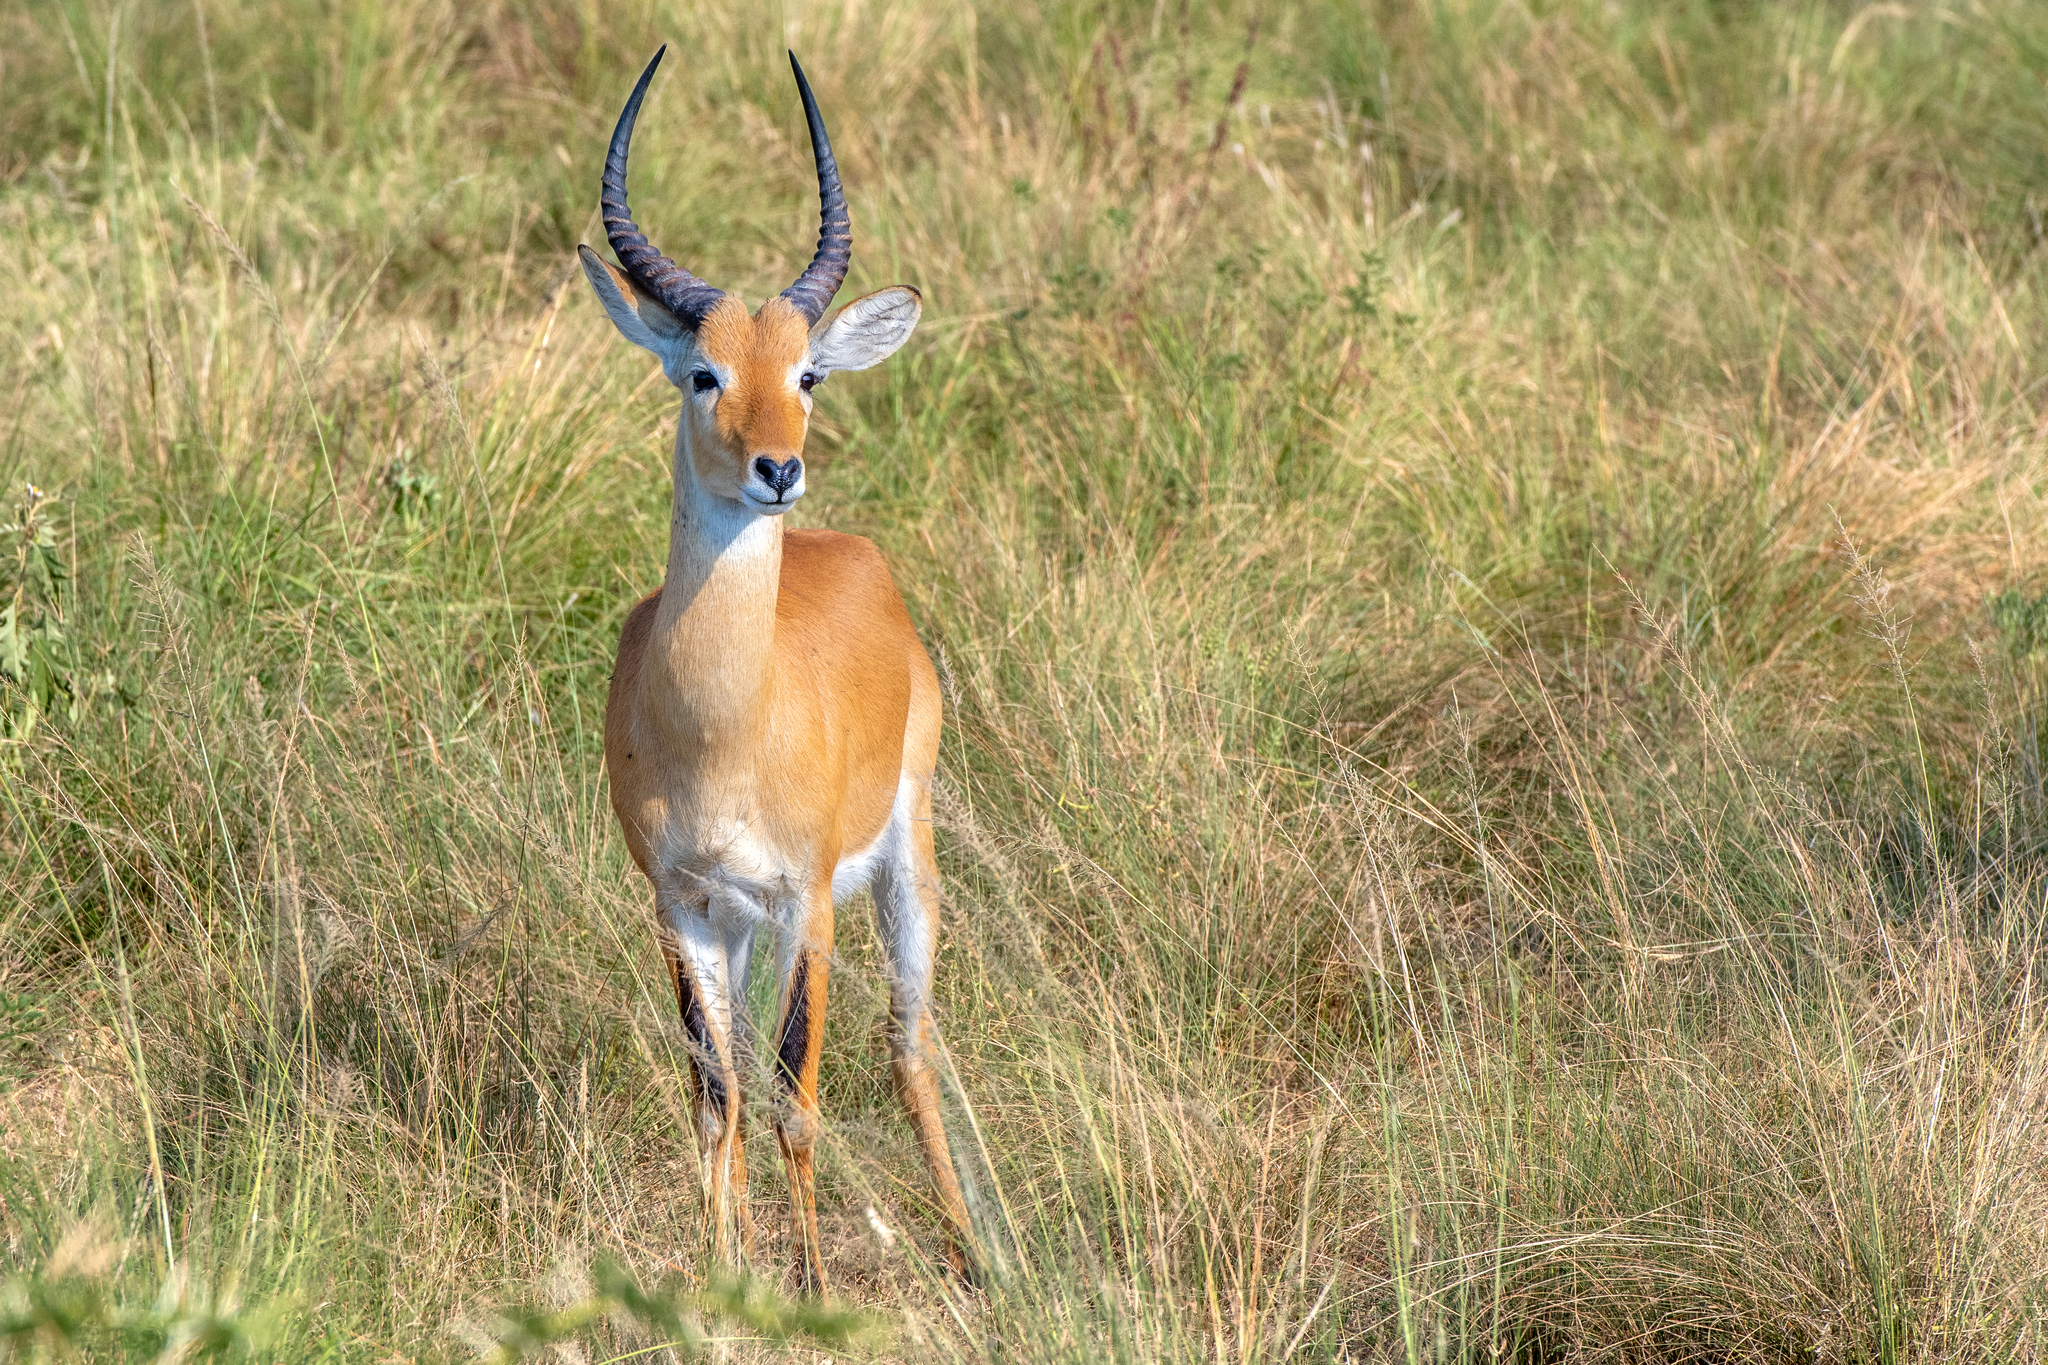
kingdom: Animalia
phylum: Chordata
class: Mammalia
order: Artiodactyla
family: Bovidae
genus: Kobus
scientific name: Kobus kob
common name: Kob
